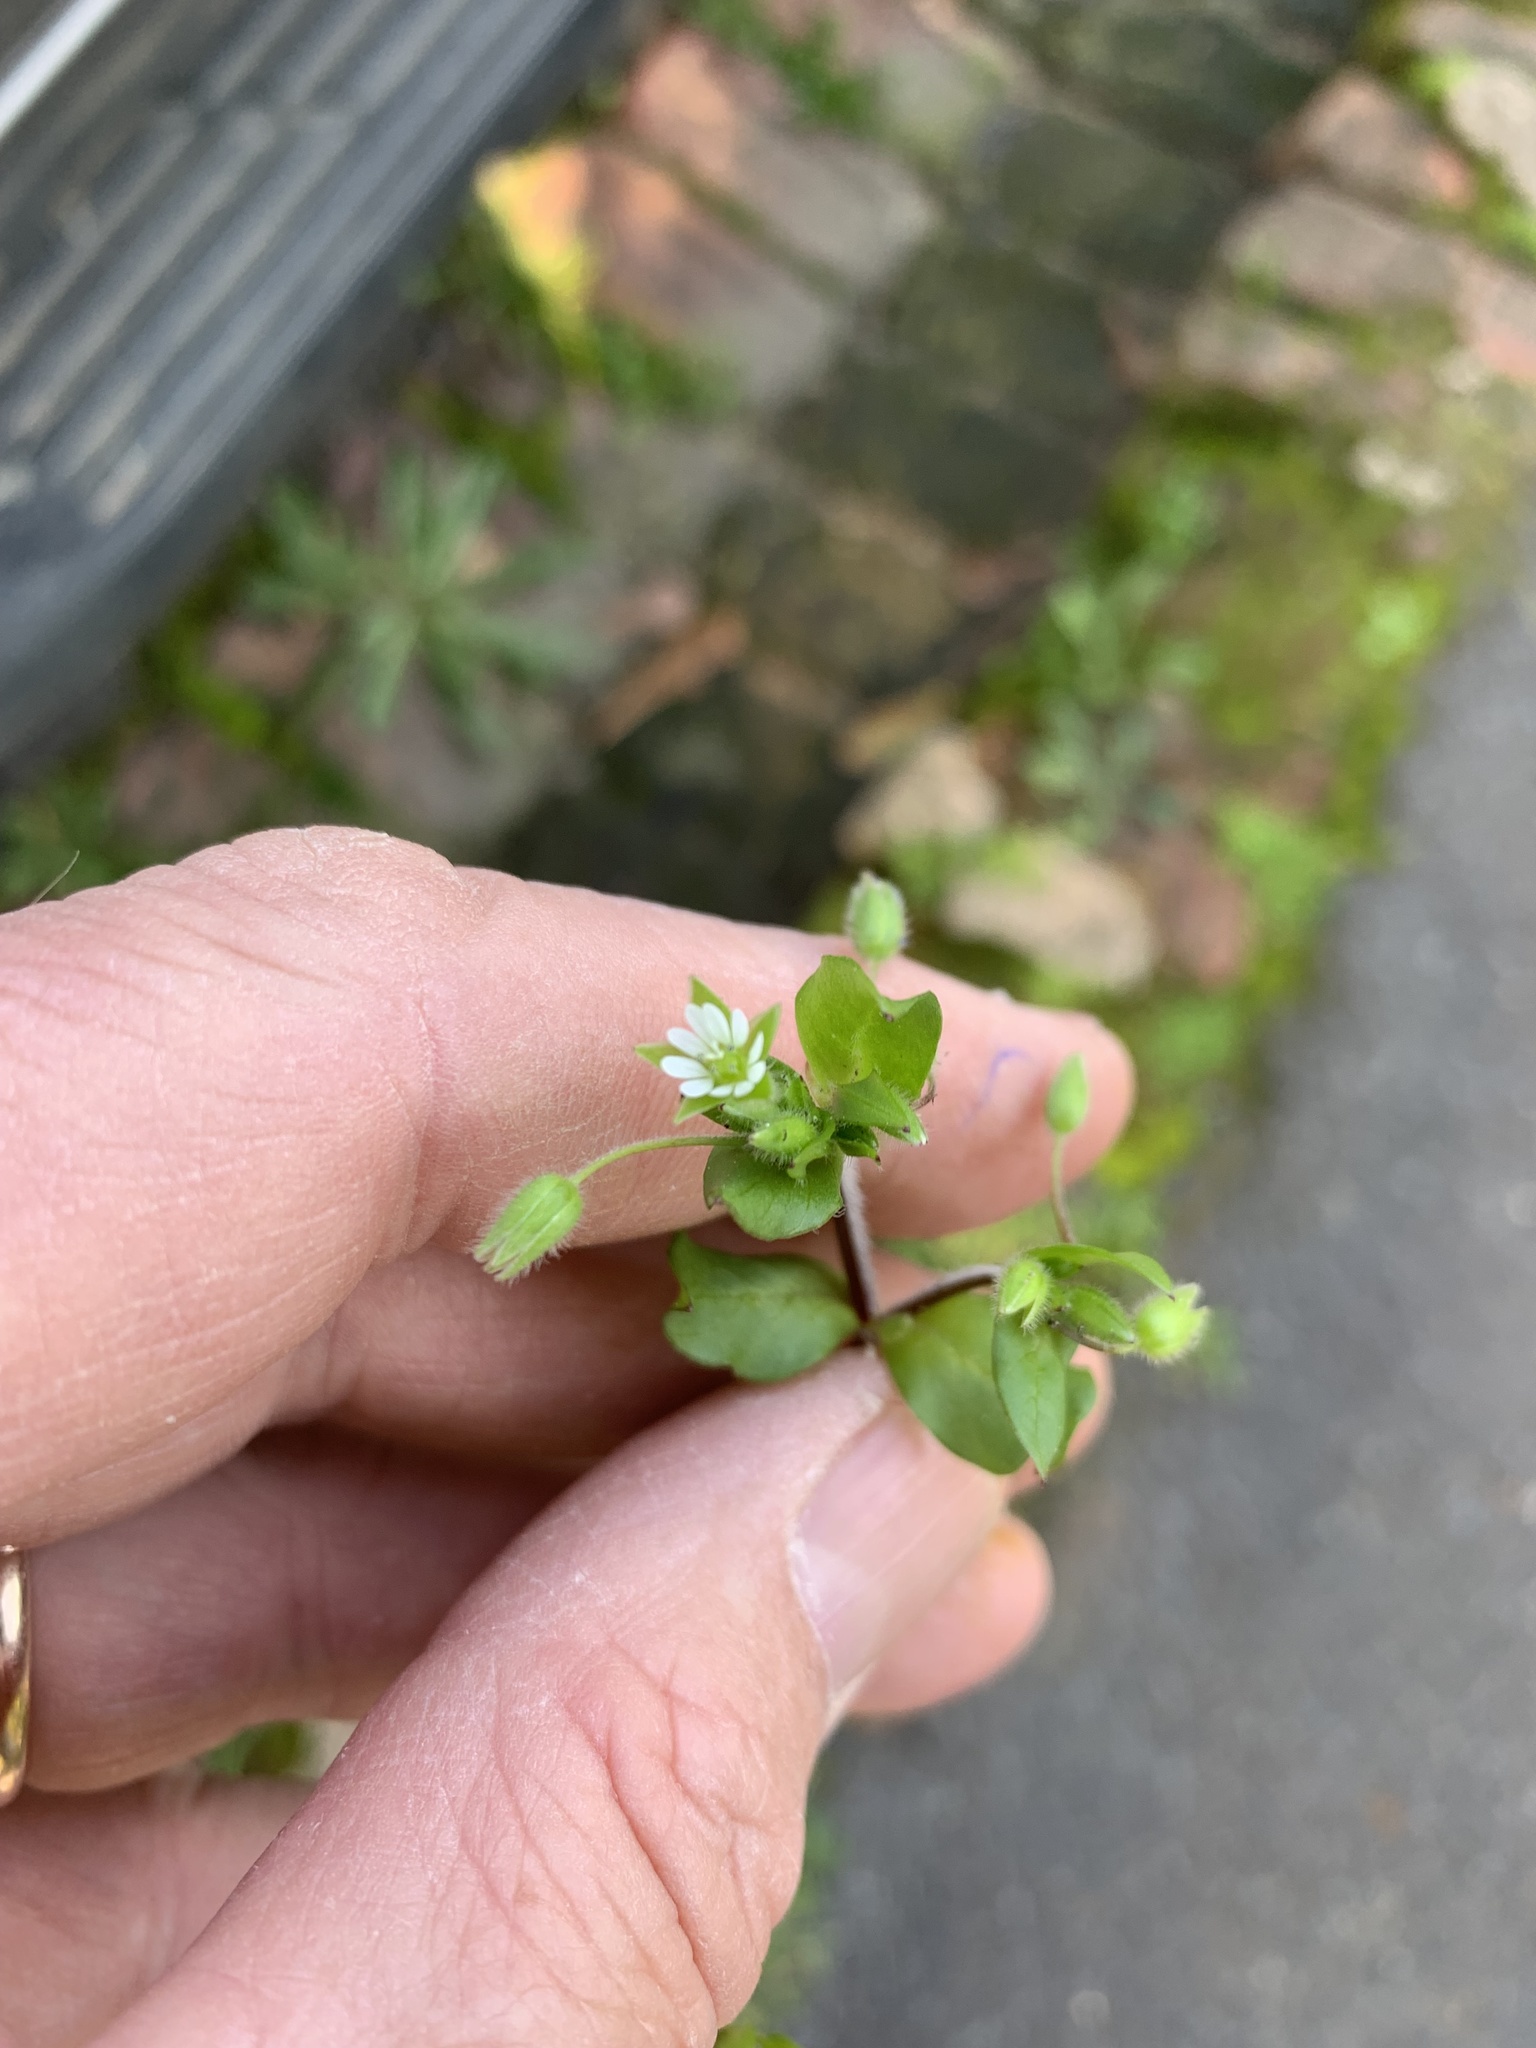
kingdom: Plantae
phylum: Tracheophyta
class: Magnoliopsida
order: Caryophyllales
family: Caryophyllaceae
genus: Stellaria
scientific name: Stellaria media
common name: Common chickweed
